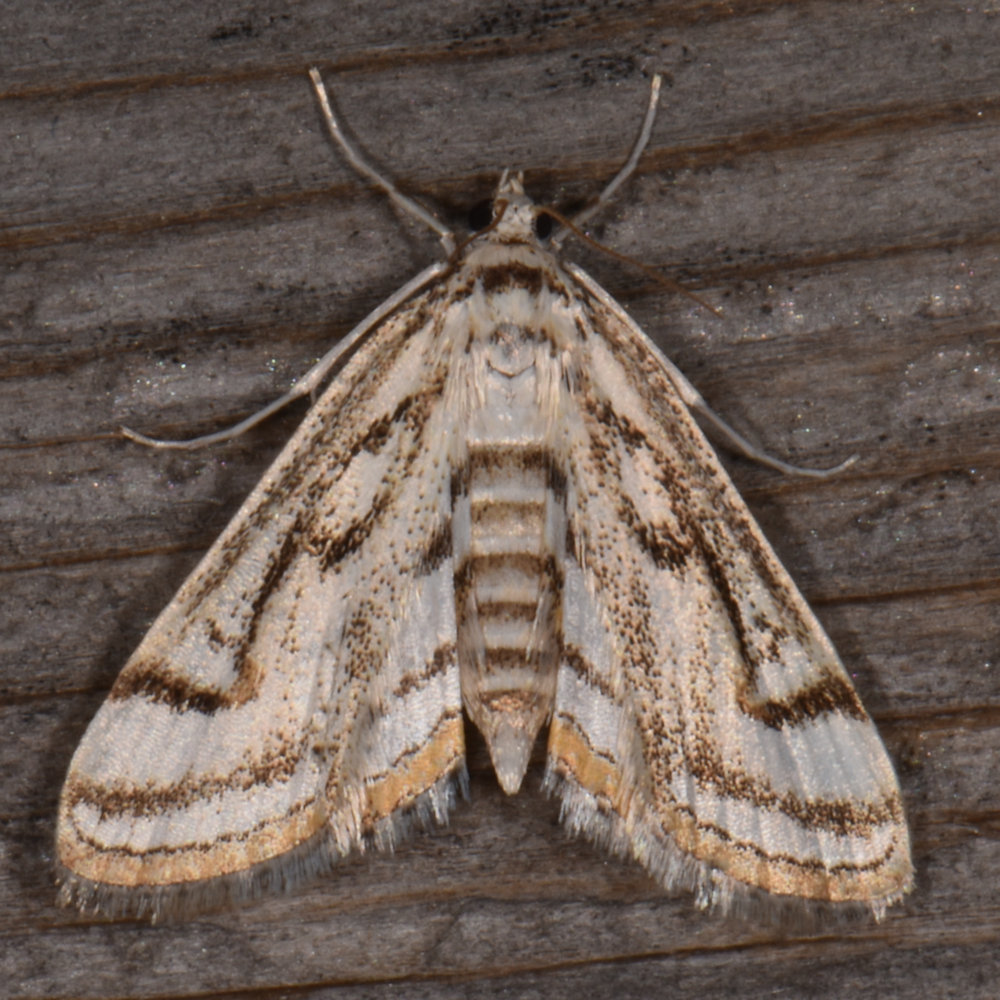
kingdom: Animalia
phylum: Arthropoda
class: Insecta
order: Lepidoptera
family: Crambidae
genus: Parapoynx
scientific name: Parapoynx badiusalis
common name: Chestnut-marked pondweed moth
